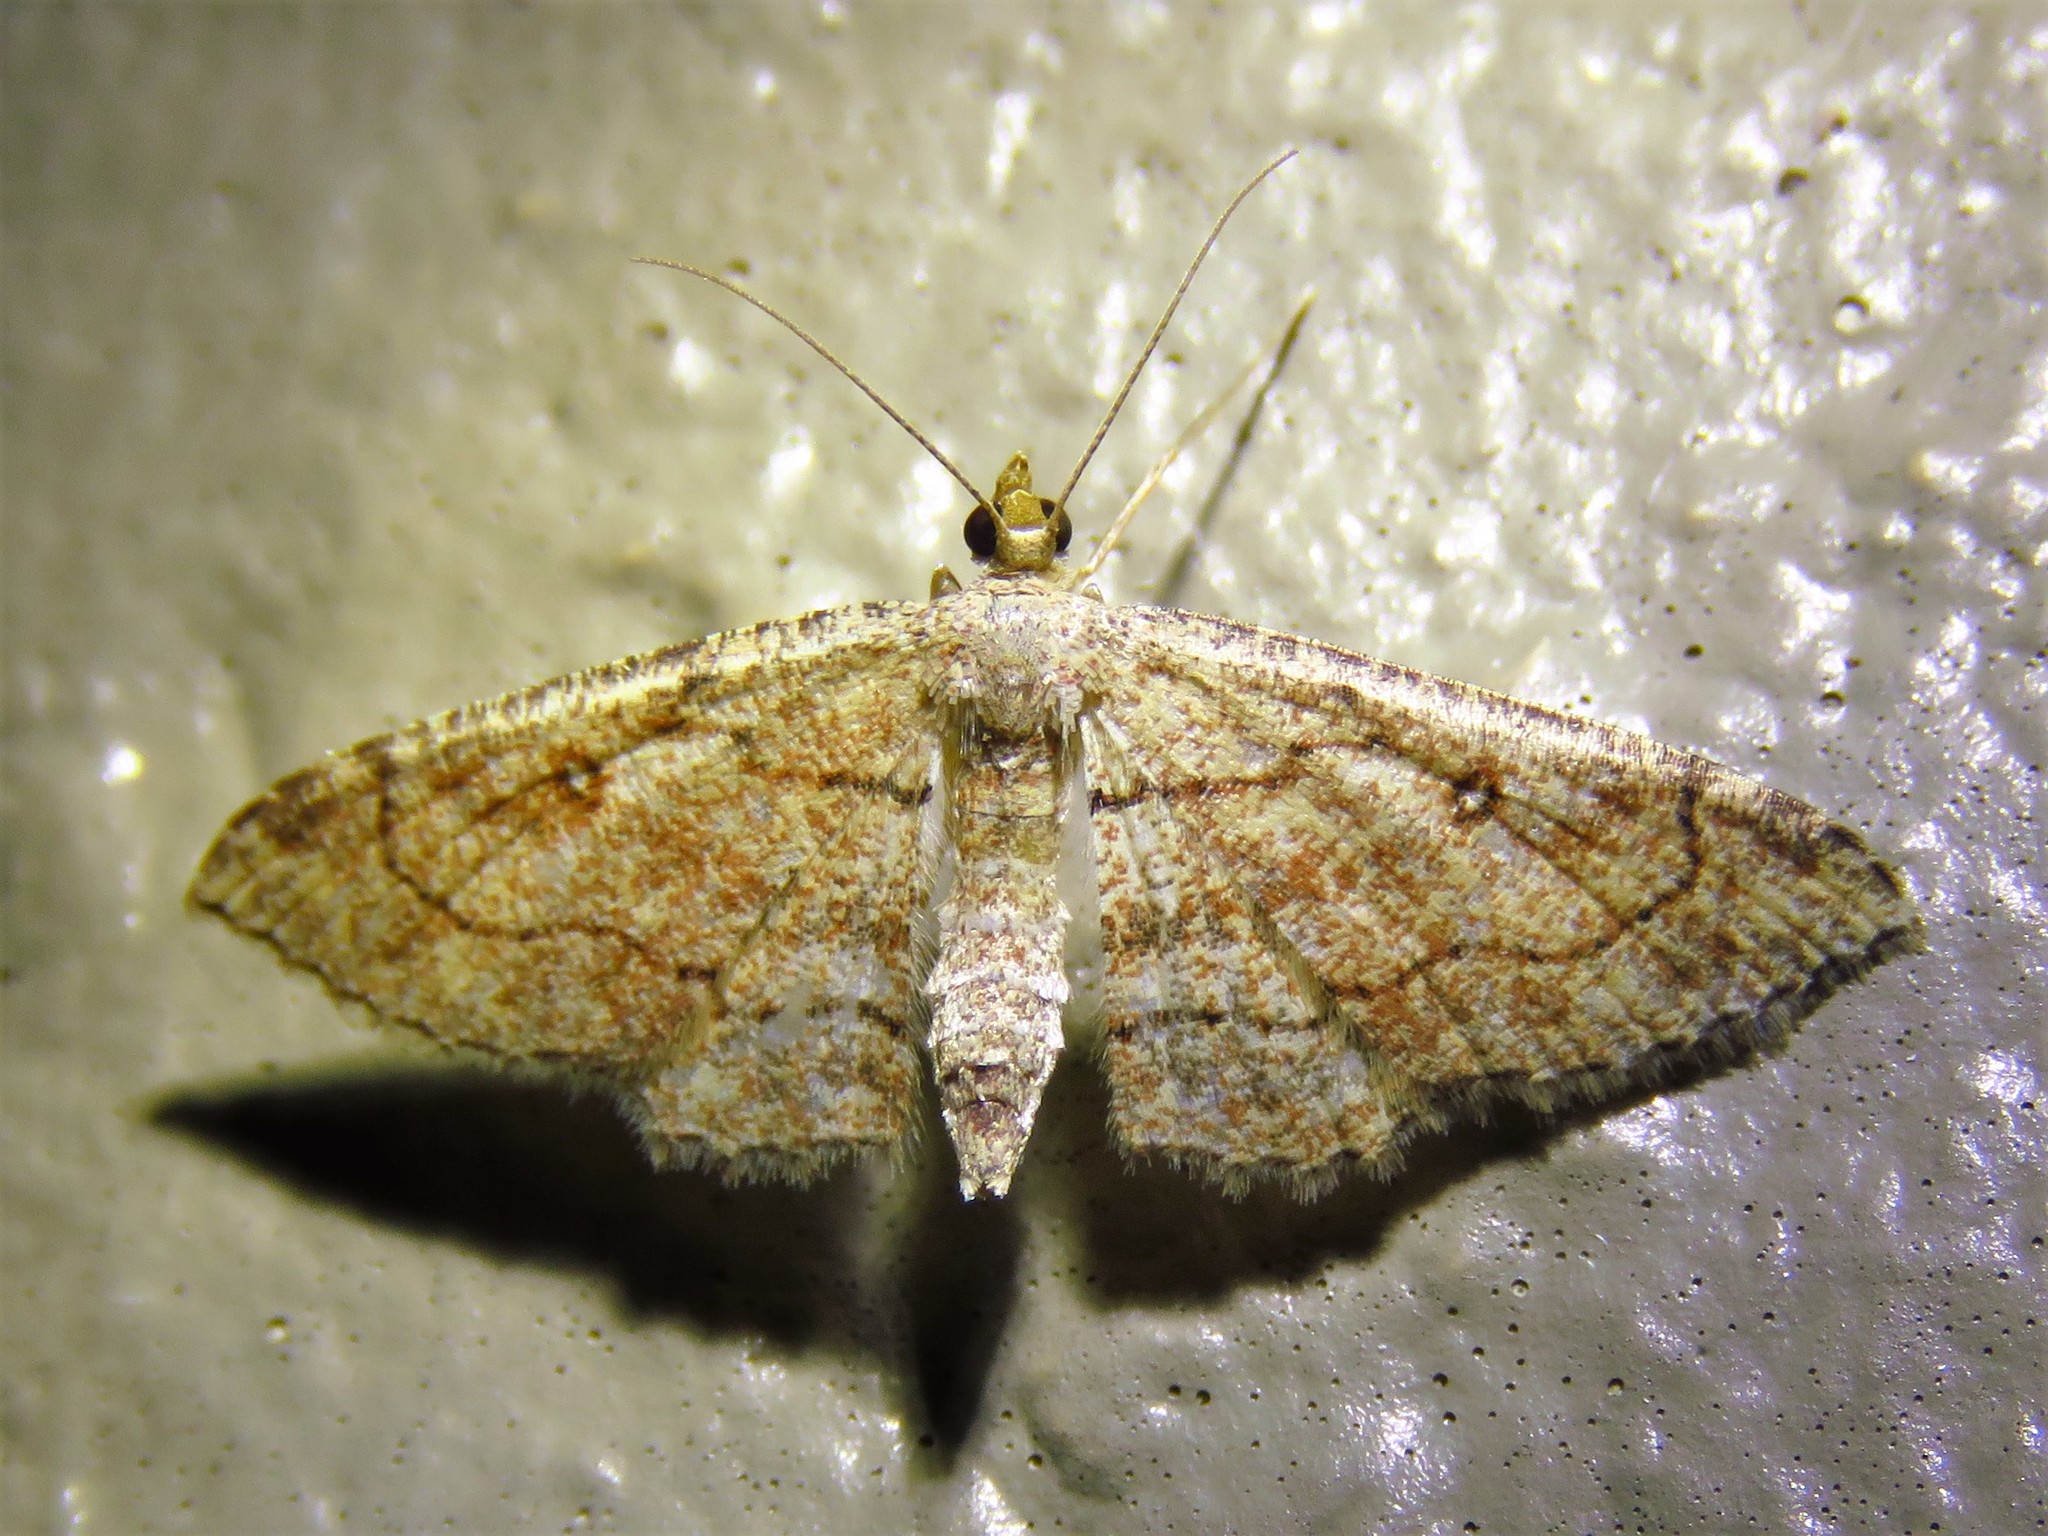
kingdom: Animalia
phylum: Arthropoda
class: Insecta
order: Lepidoptera
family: Geometridae
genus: Cyclophora
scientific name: Cyclophora nanaria
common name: Cankerworm
